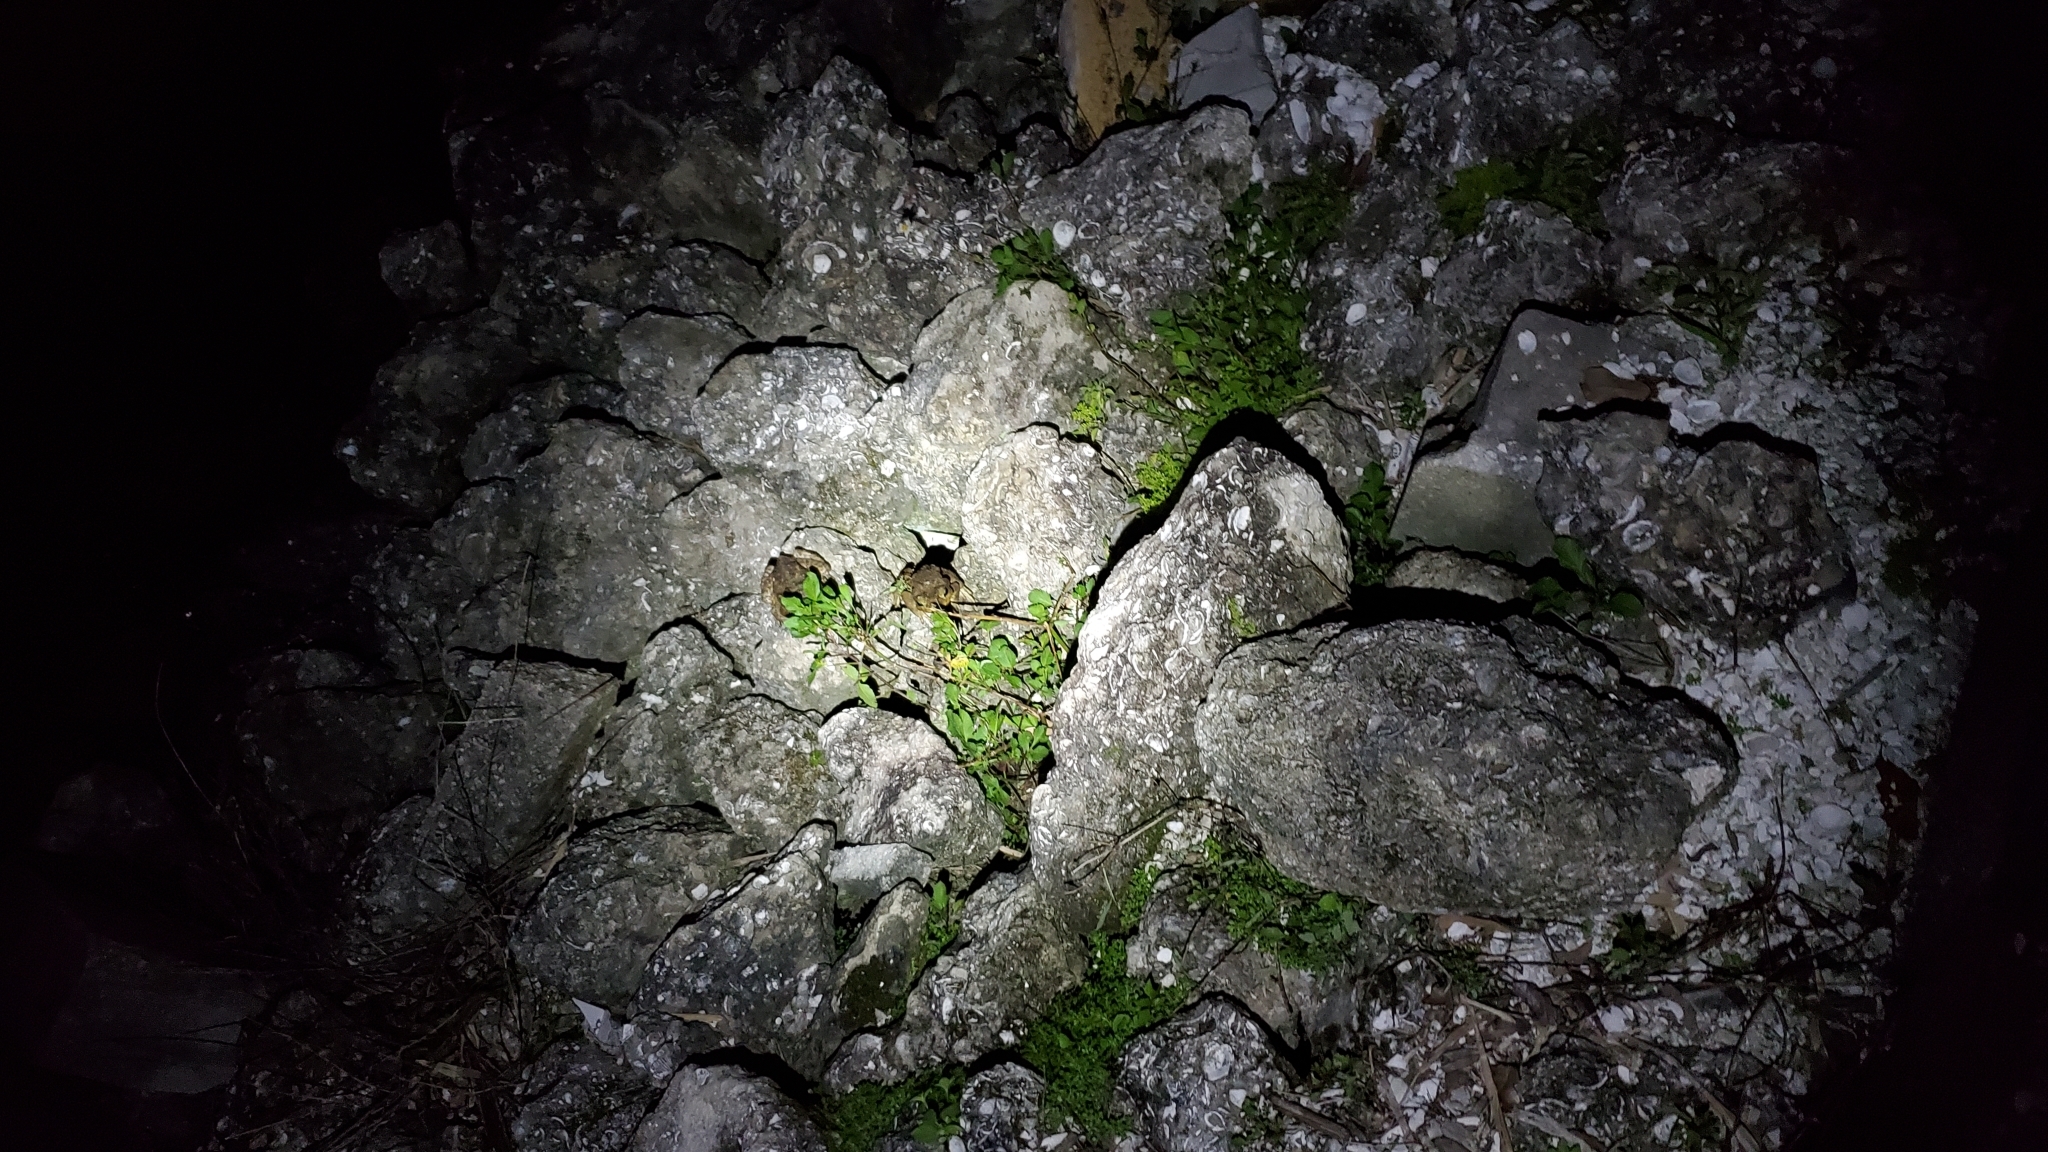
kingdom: Animalia
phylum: Chordata
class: Amphibia
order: Anura
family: Bufonidae
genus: Rhinella
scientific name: Rhinella marina
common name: Cane toad
